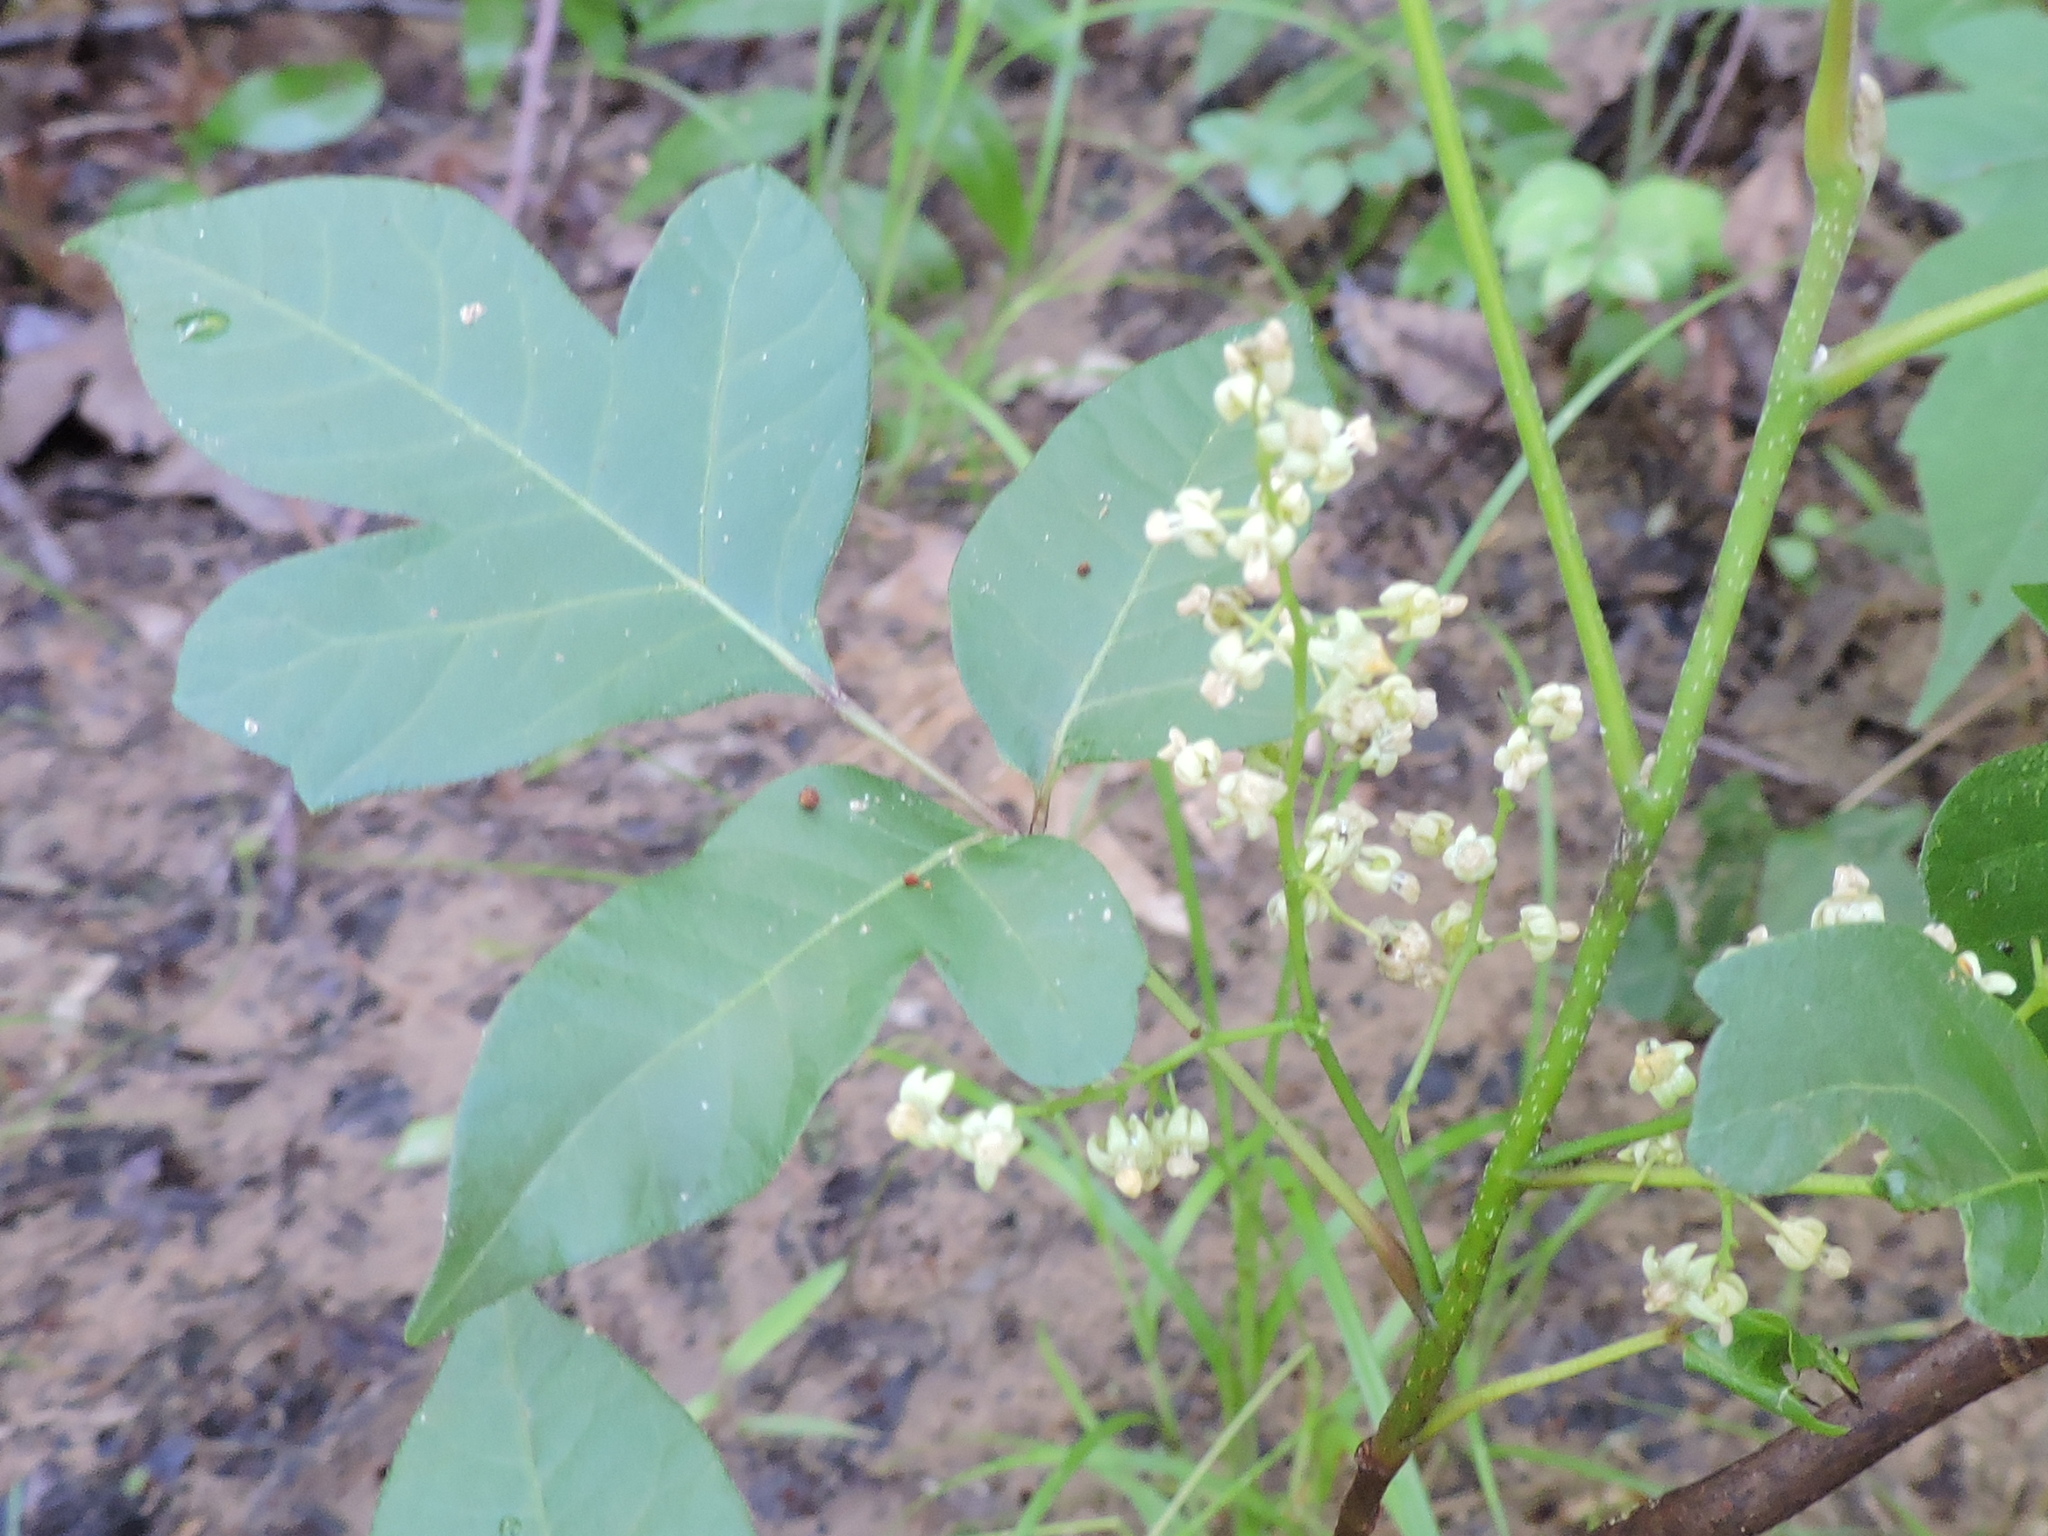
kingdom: Plantae
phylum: Tracheophyta
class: Magnoliopsida
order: Sapindales
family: Anacardiaceae
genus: Toxicodendron
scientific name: Toxicodendron radicans
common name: Poison ivy
